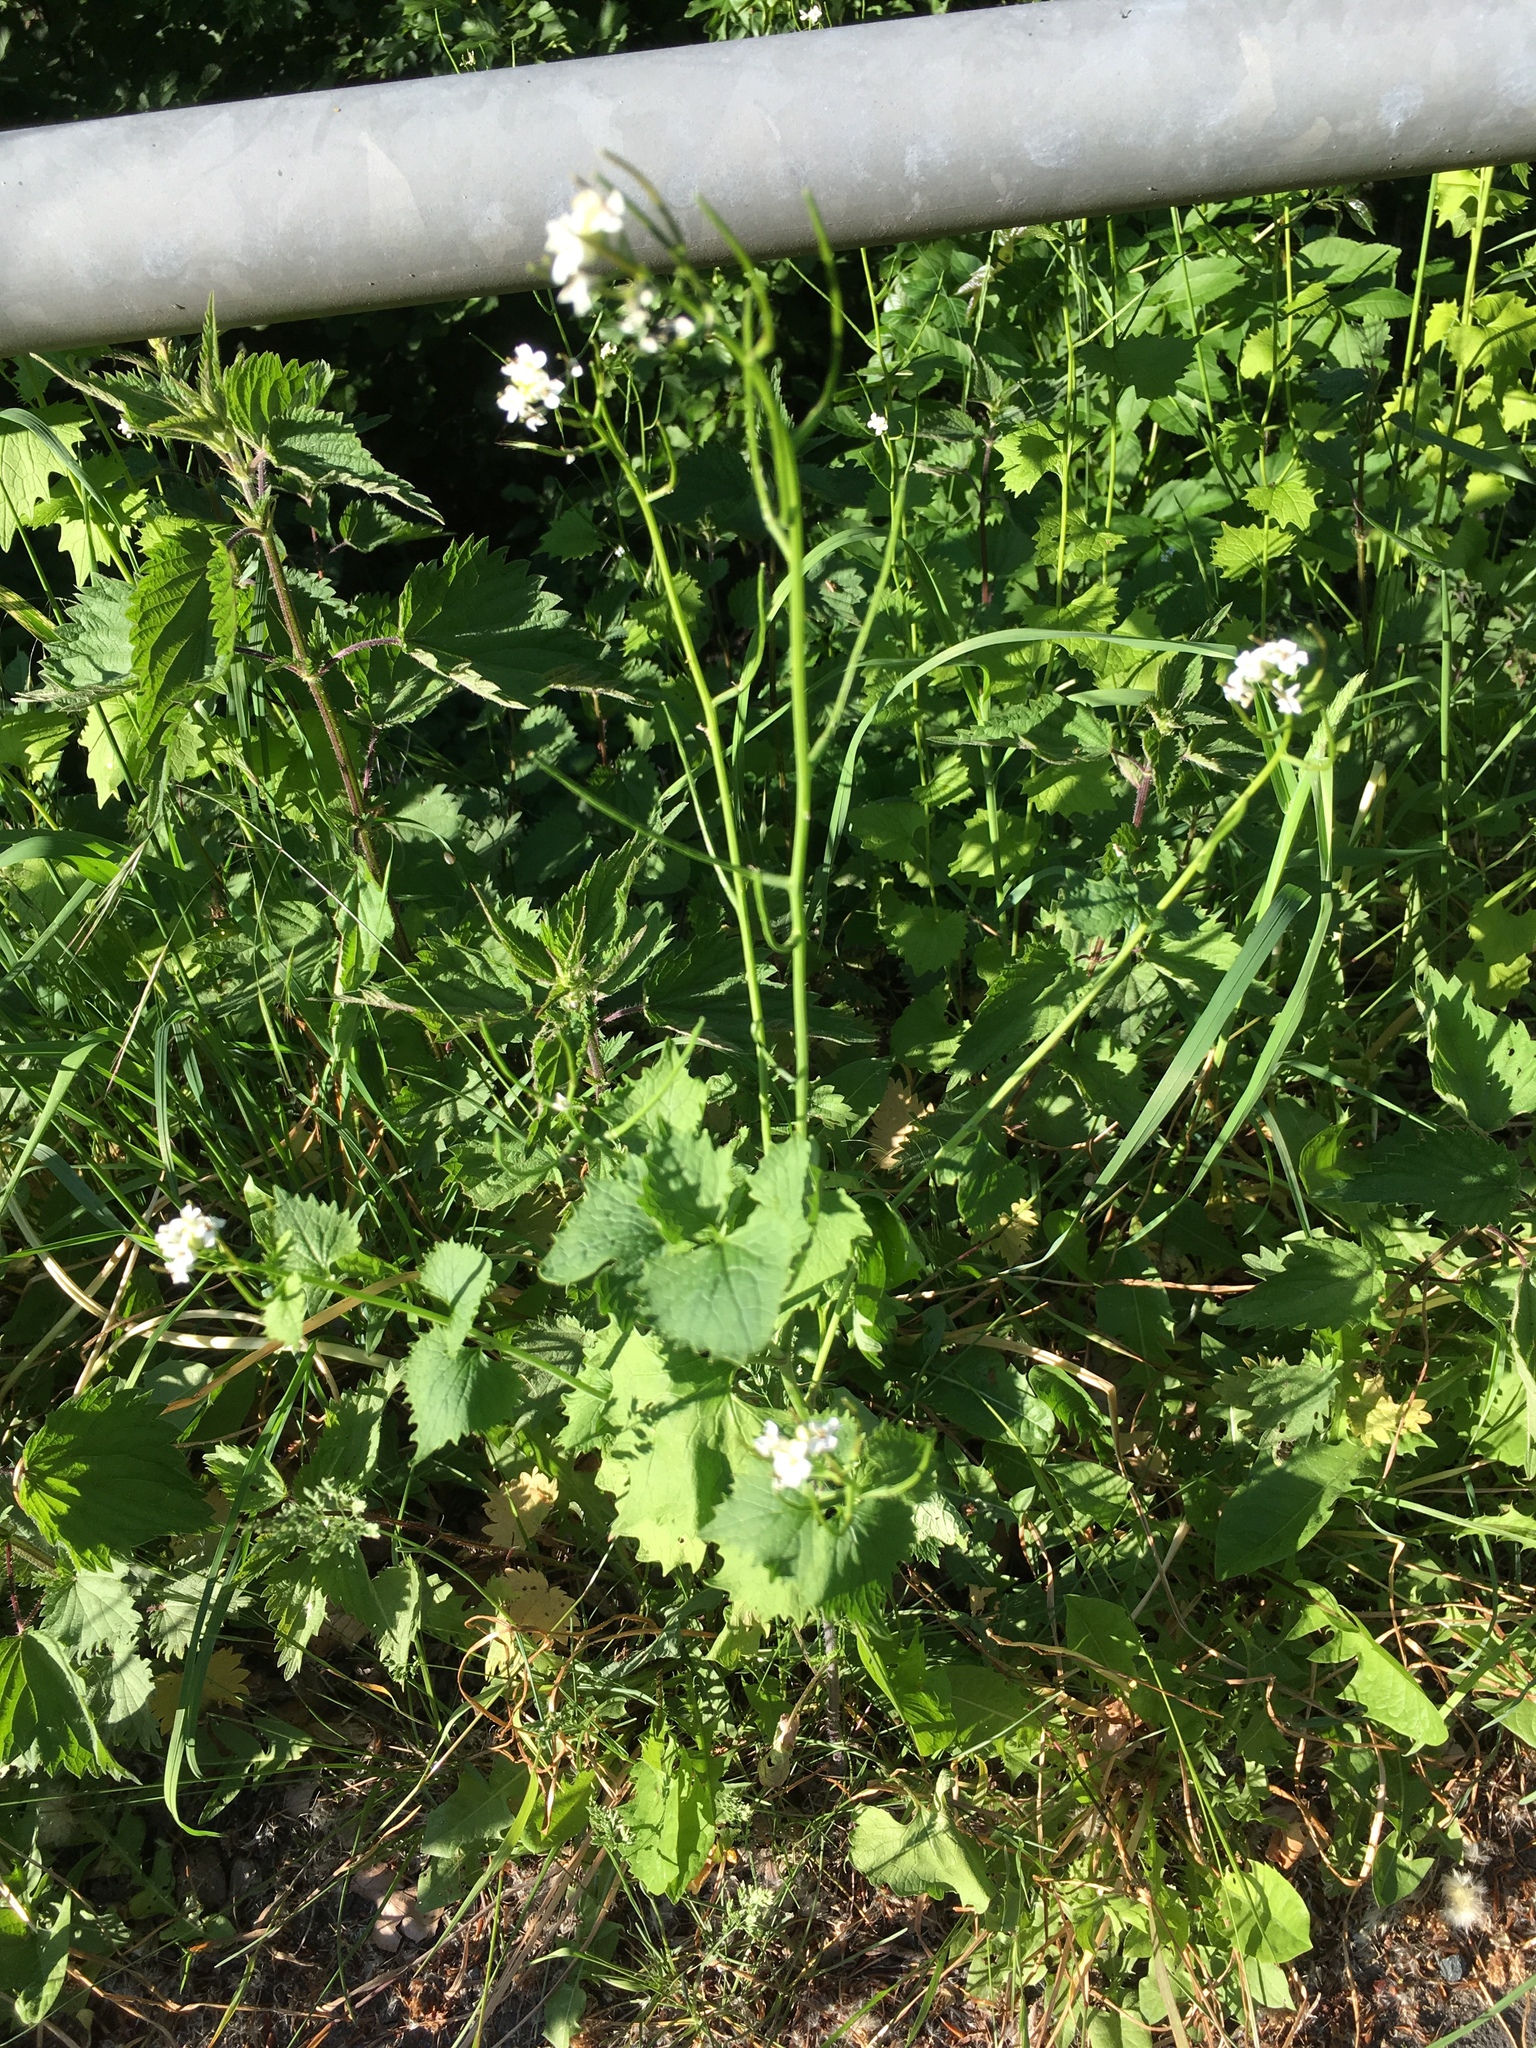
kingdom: Plantae
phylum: Tracheophyta
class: Magnoliopsida
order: Brassicales
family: Brassicaceae
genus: Alliaria
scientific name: Alliaria petiolata
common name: Garlic mustard
